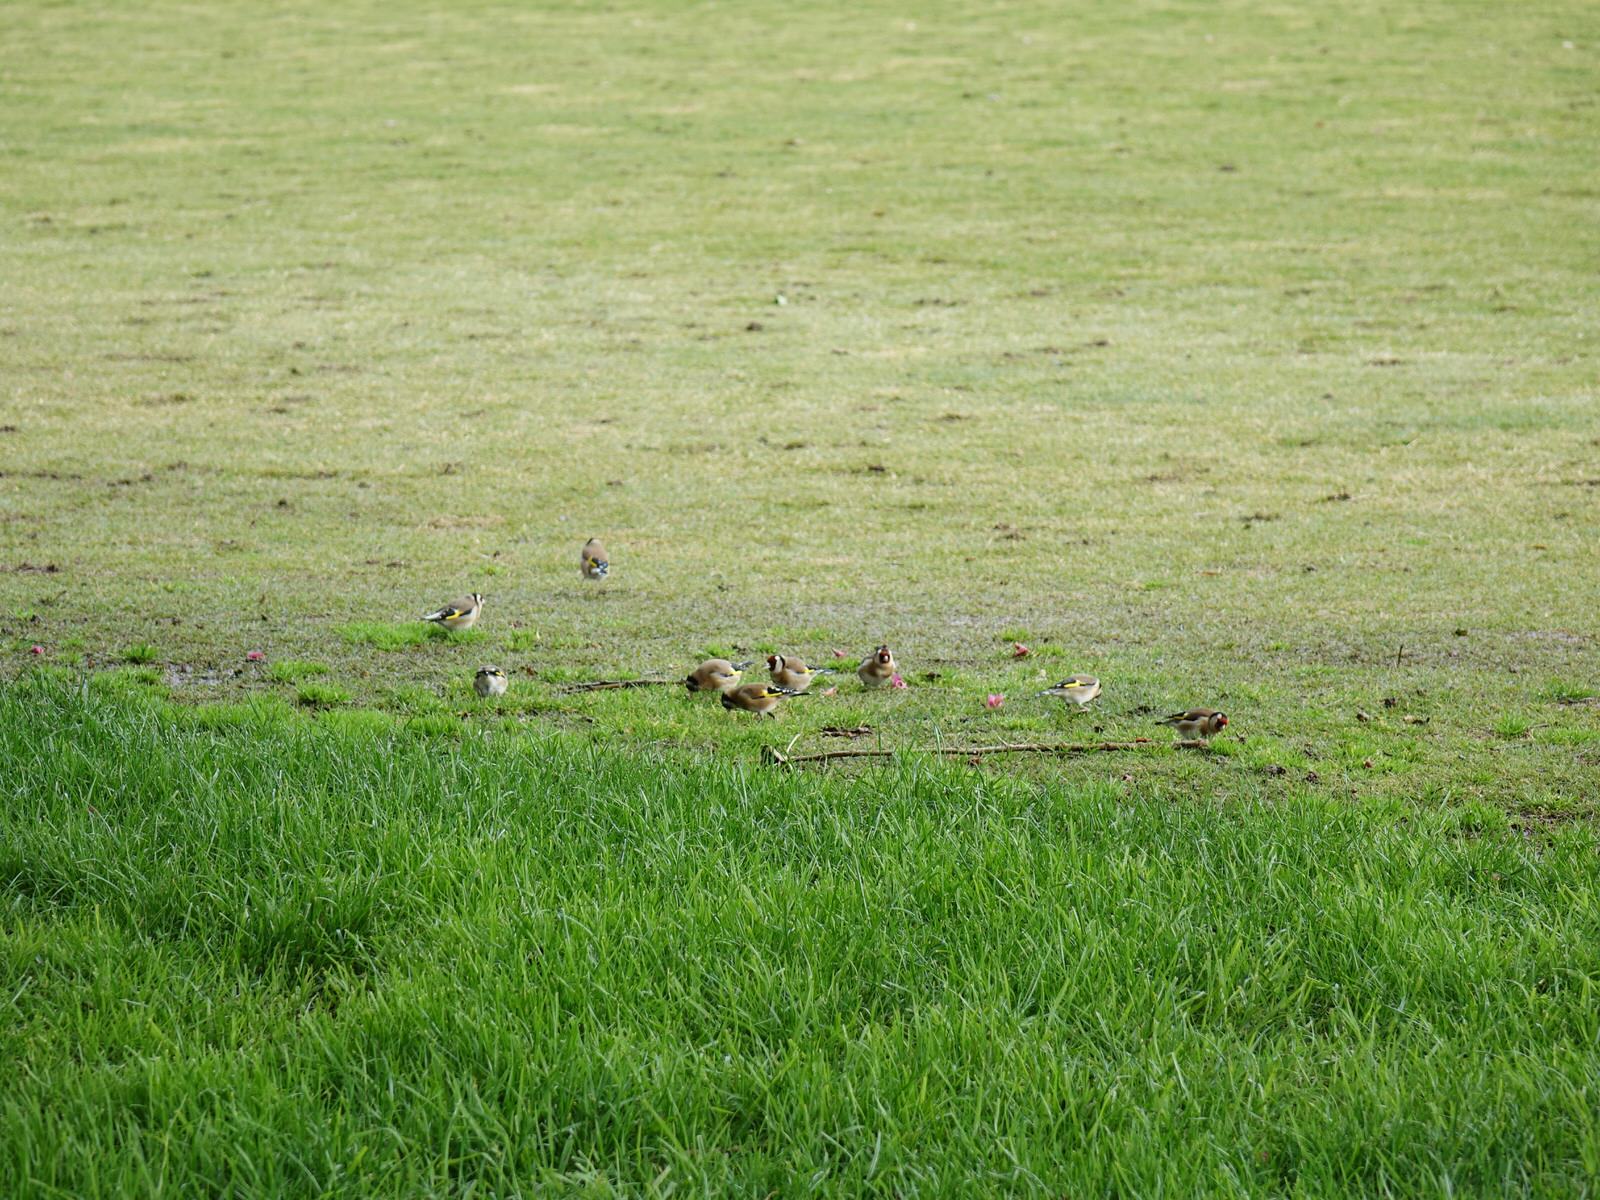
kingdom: Animalia
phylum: Chordata
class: Aves
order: Passeriformes
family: Fringillidae
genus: Carduelis
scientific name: Carduelis carduelis
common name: European goldfinch
